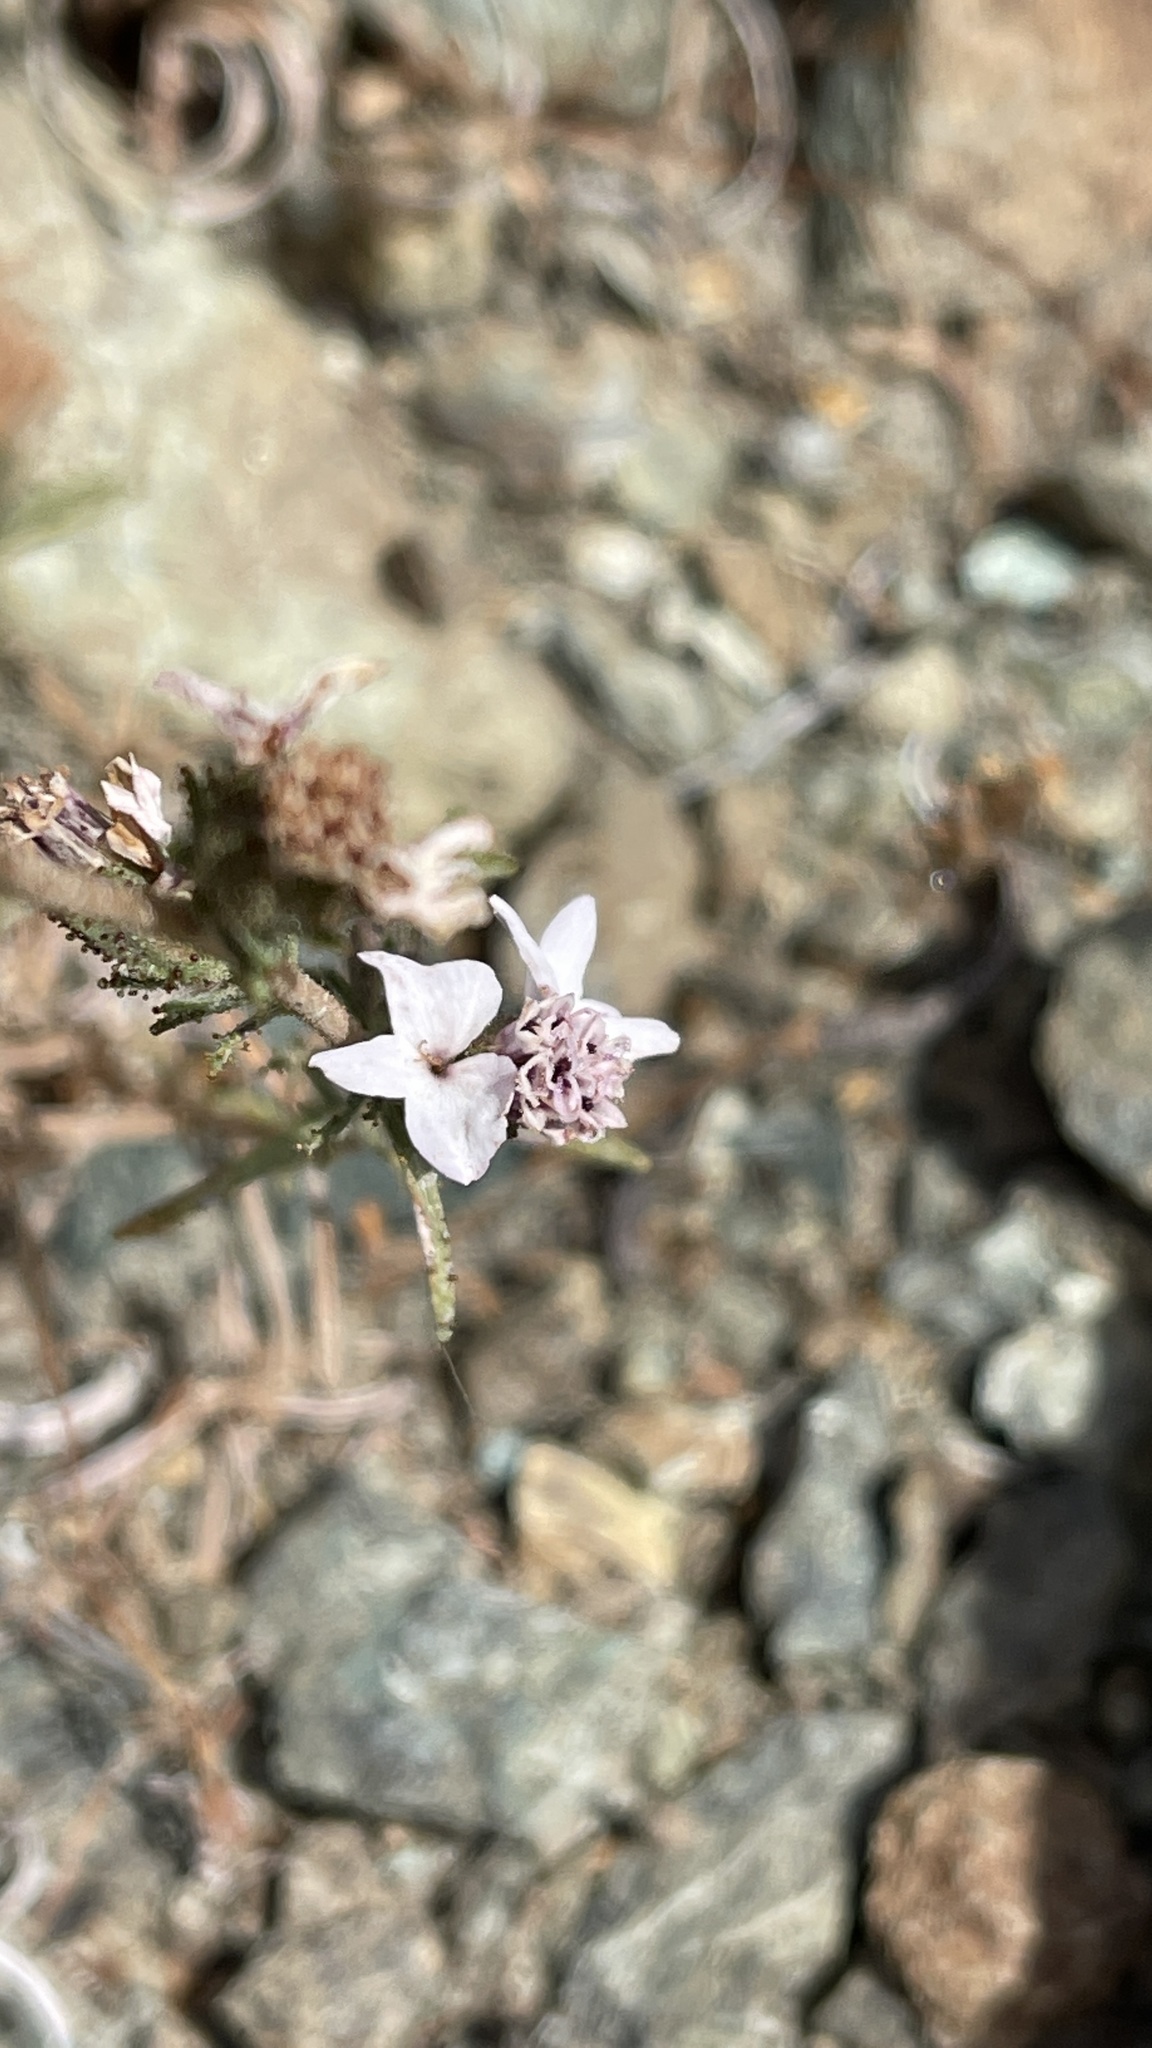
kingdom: Plantae
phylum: Tracheophyta
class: Magnoliopsida
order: Asterales
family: Asteraceae
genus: Calycadenia
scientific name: Calycadenia multiglandulosa
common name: Sticky calycadenia
